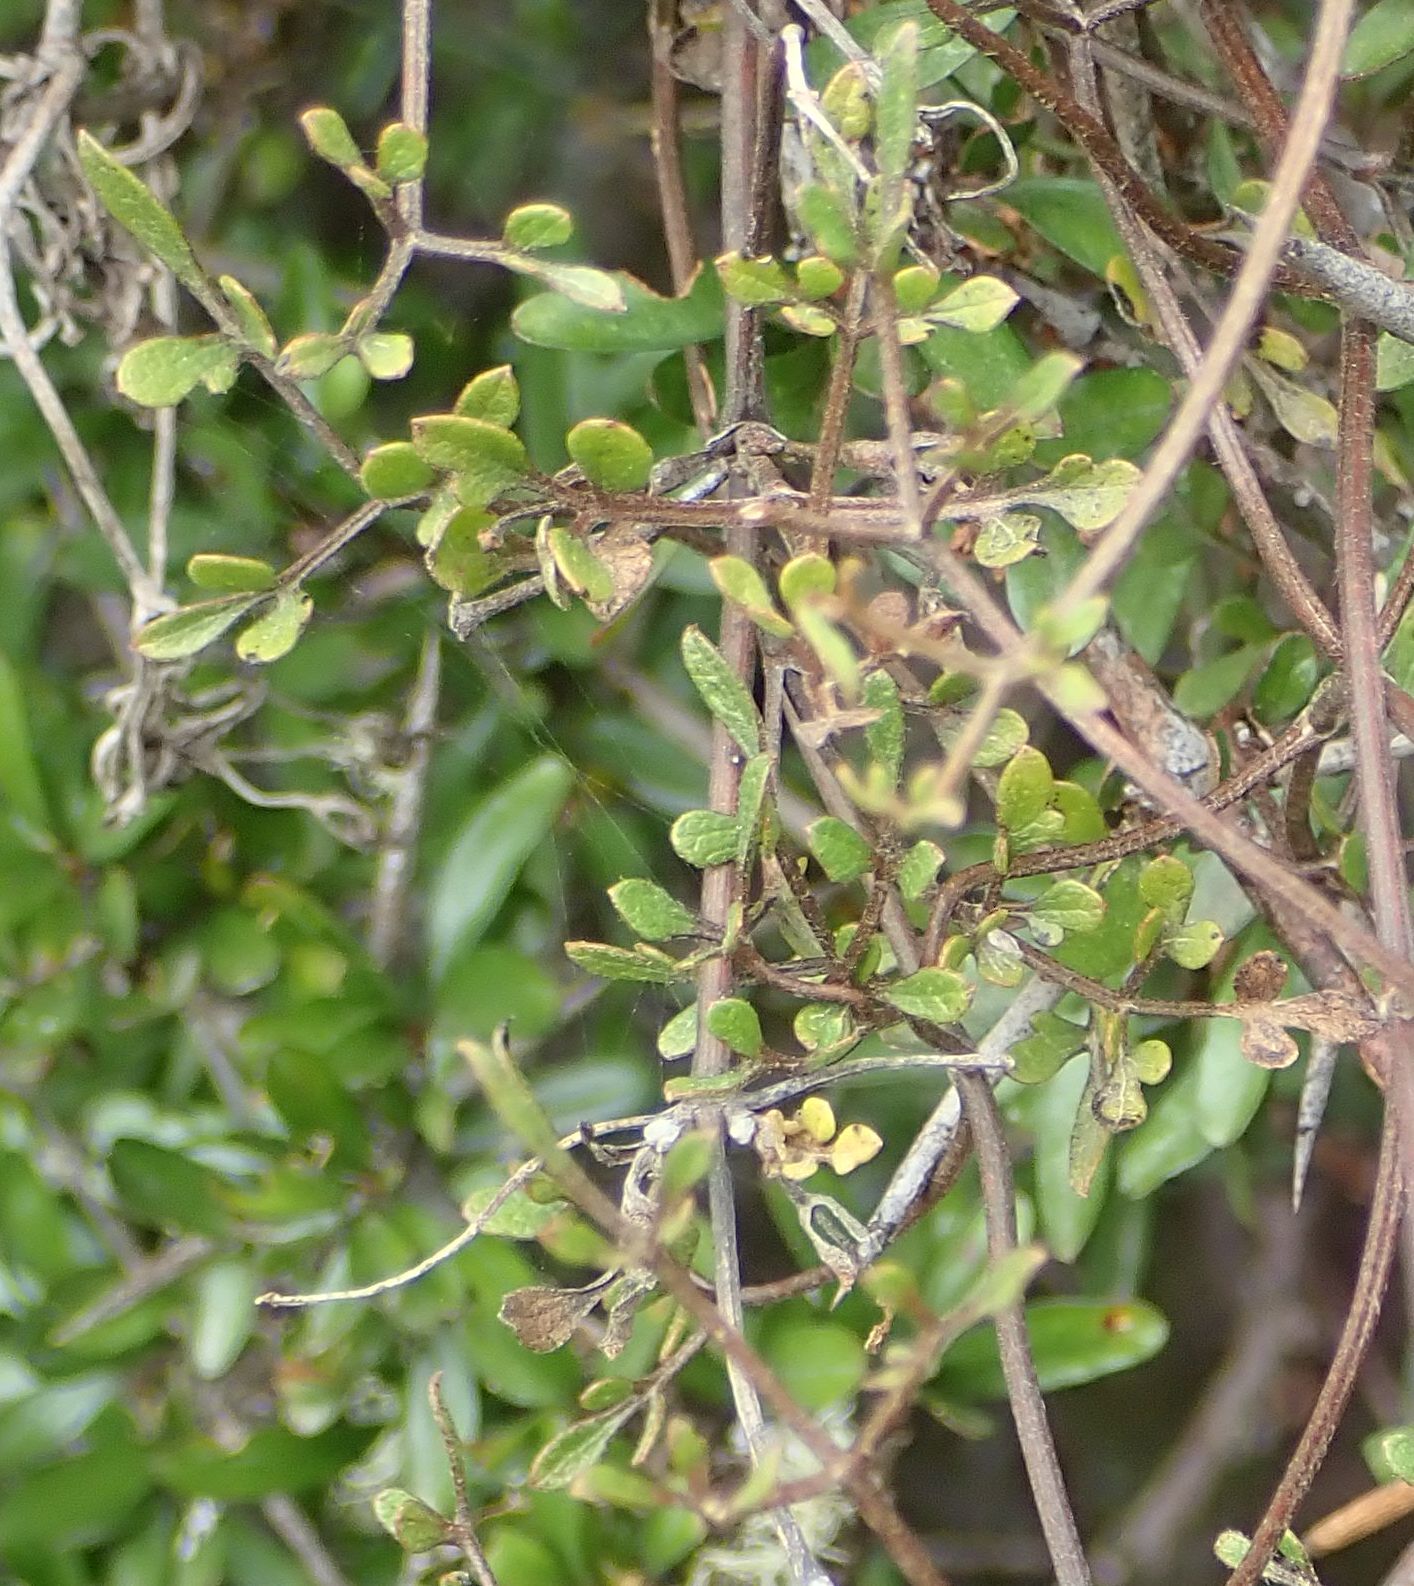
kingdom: Plantae
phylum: Tracheophyta
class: Magnoliopsida
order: Ranunculales
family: Ranunculaceae
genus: Clematis
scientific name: Clematis marata
